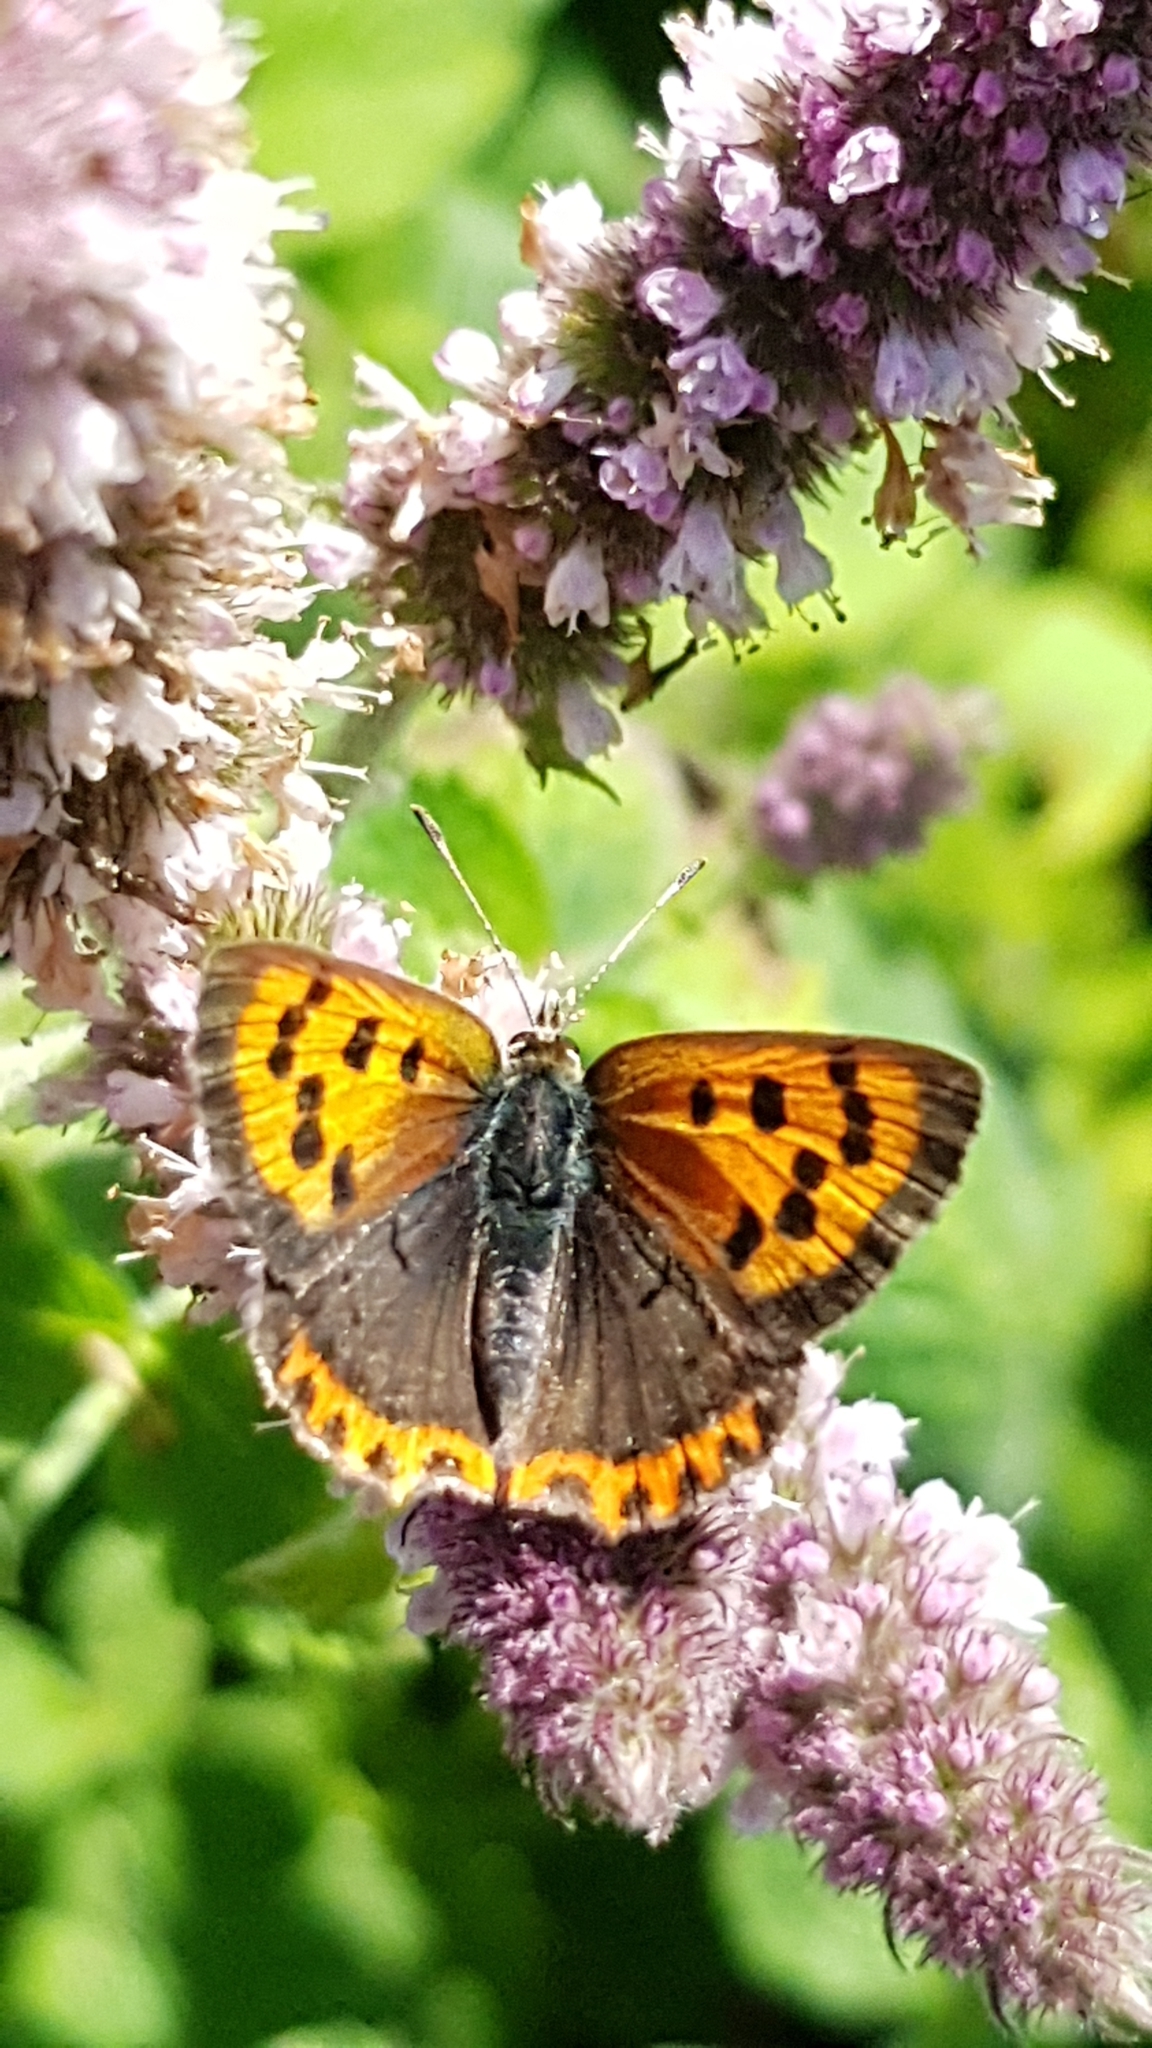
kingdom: Animalia
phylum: Arthropoda
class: Insecta
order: Lepidoptera
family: Lycaenidae
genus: Lycaena
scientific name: Lycaena phlaeas
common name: Small copper
